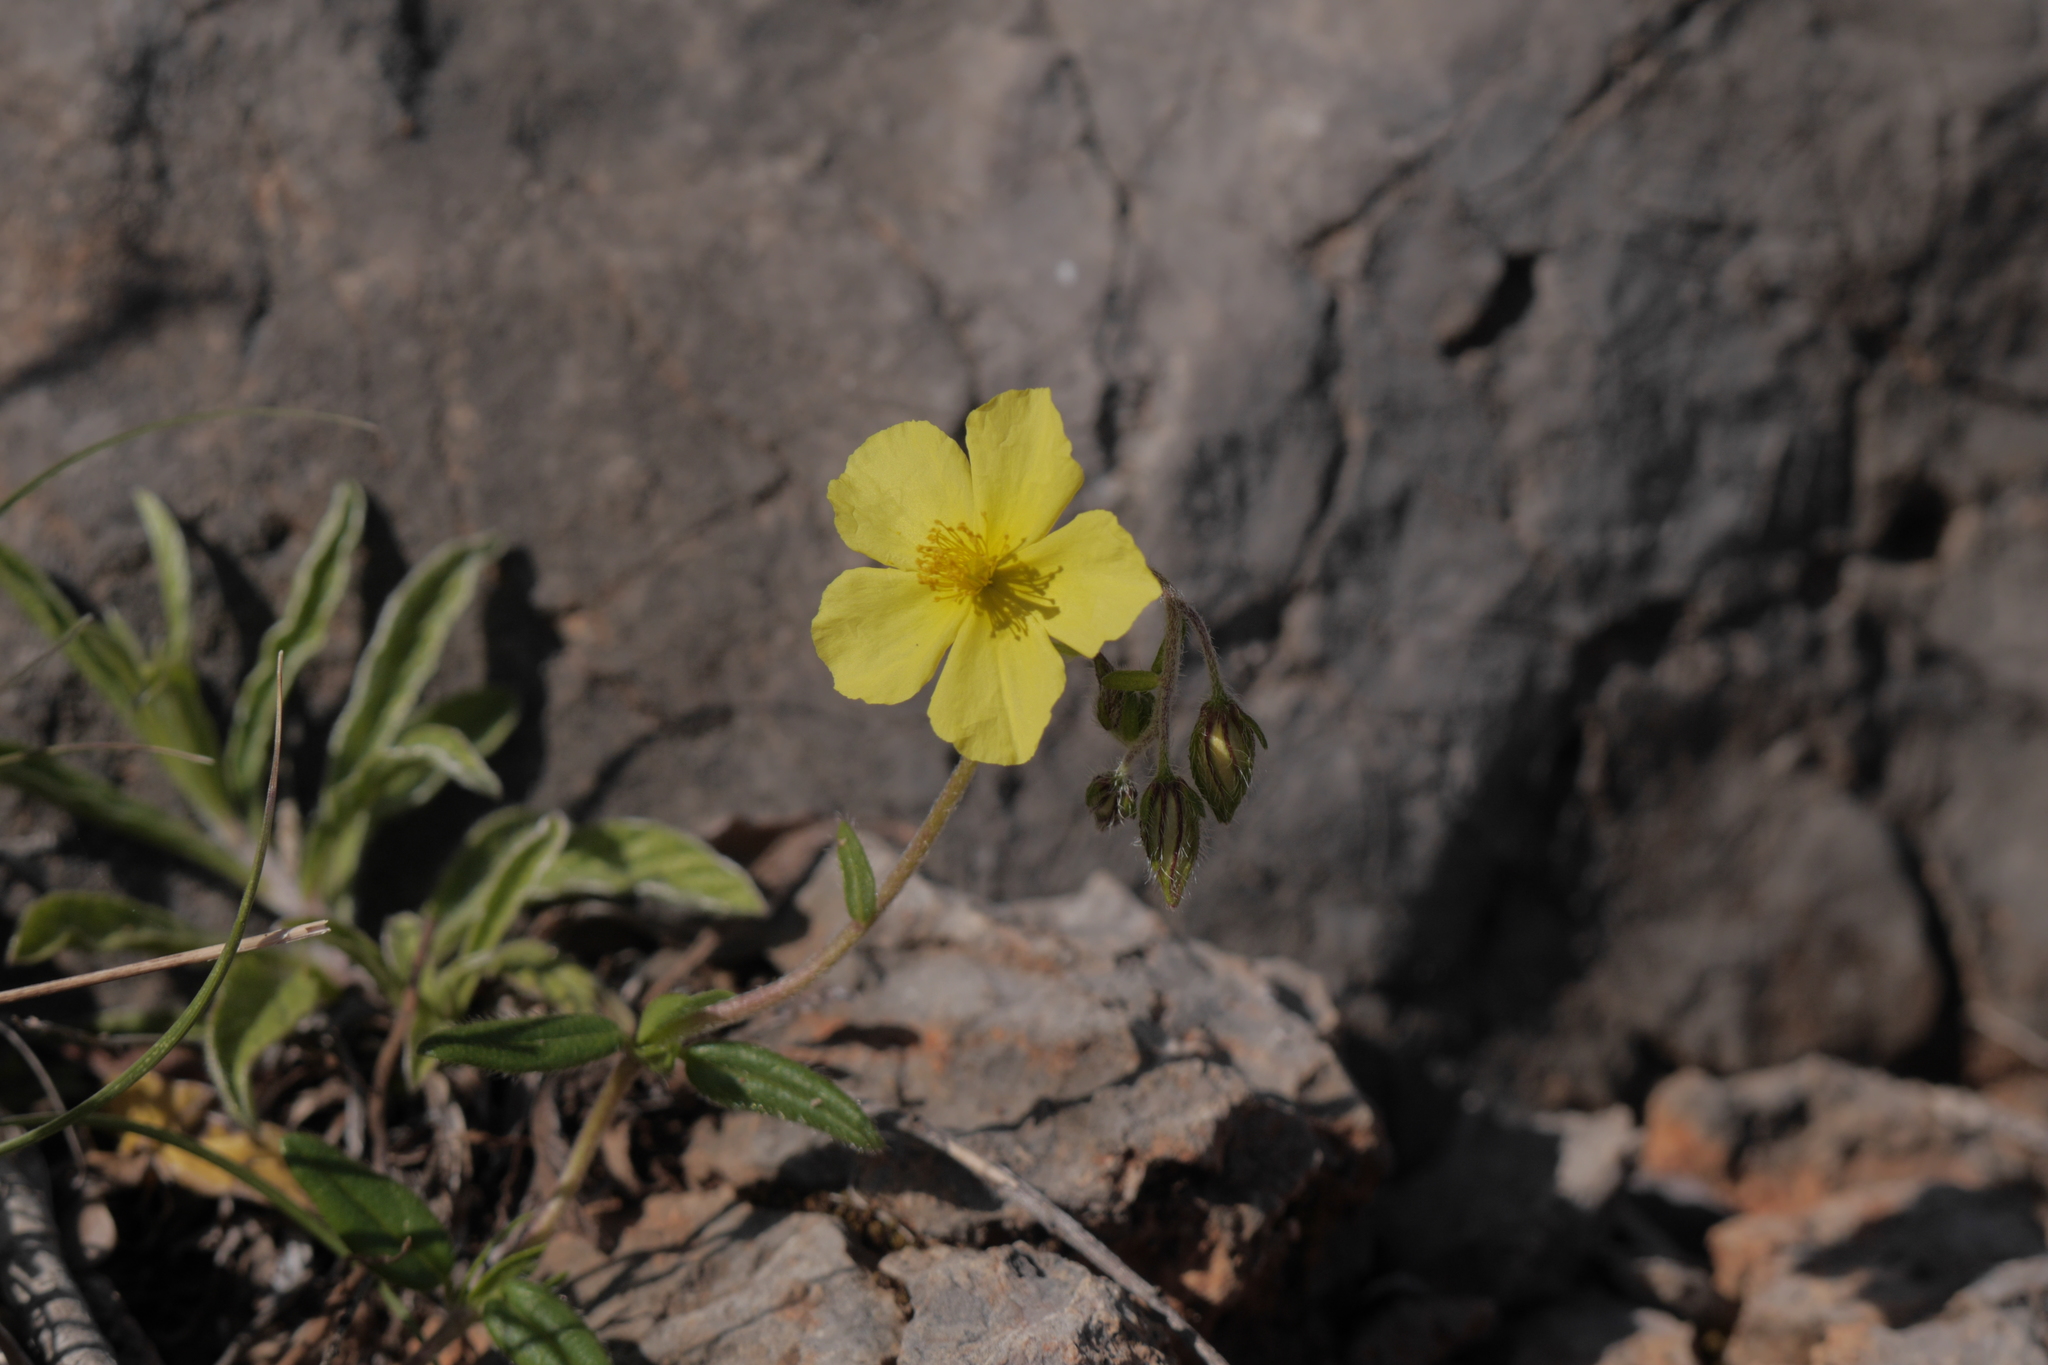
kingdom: Plantae
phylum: Tracheophyta
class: Magnoliopsida
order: Malvales
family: Cistaceae
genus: Helianthemum
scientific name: Helianthemum nummularium
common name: Common rock-rose
